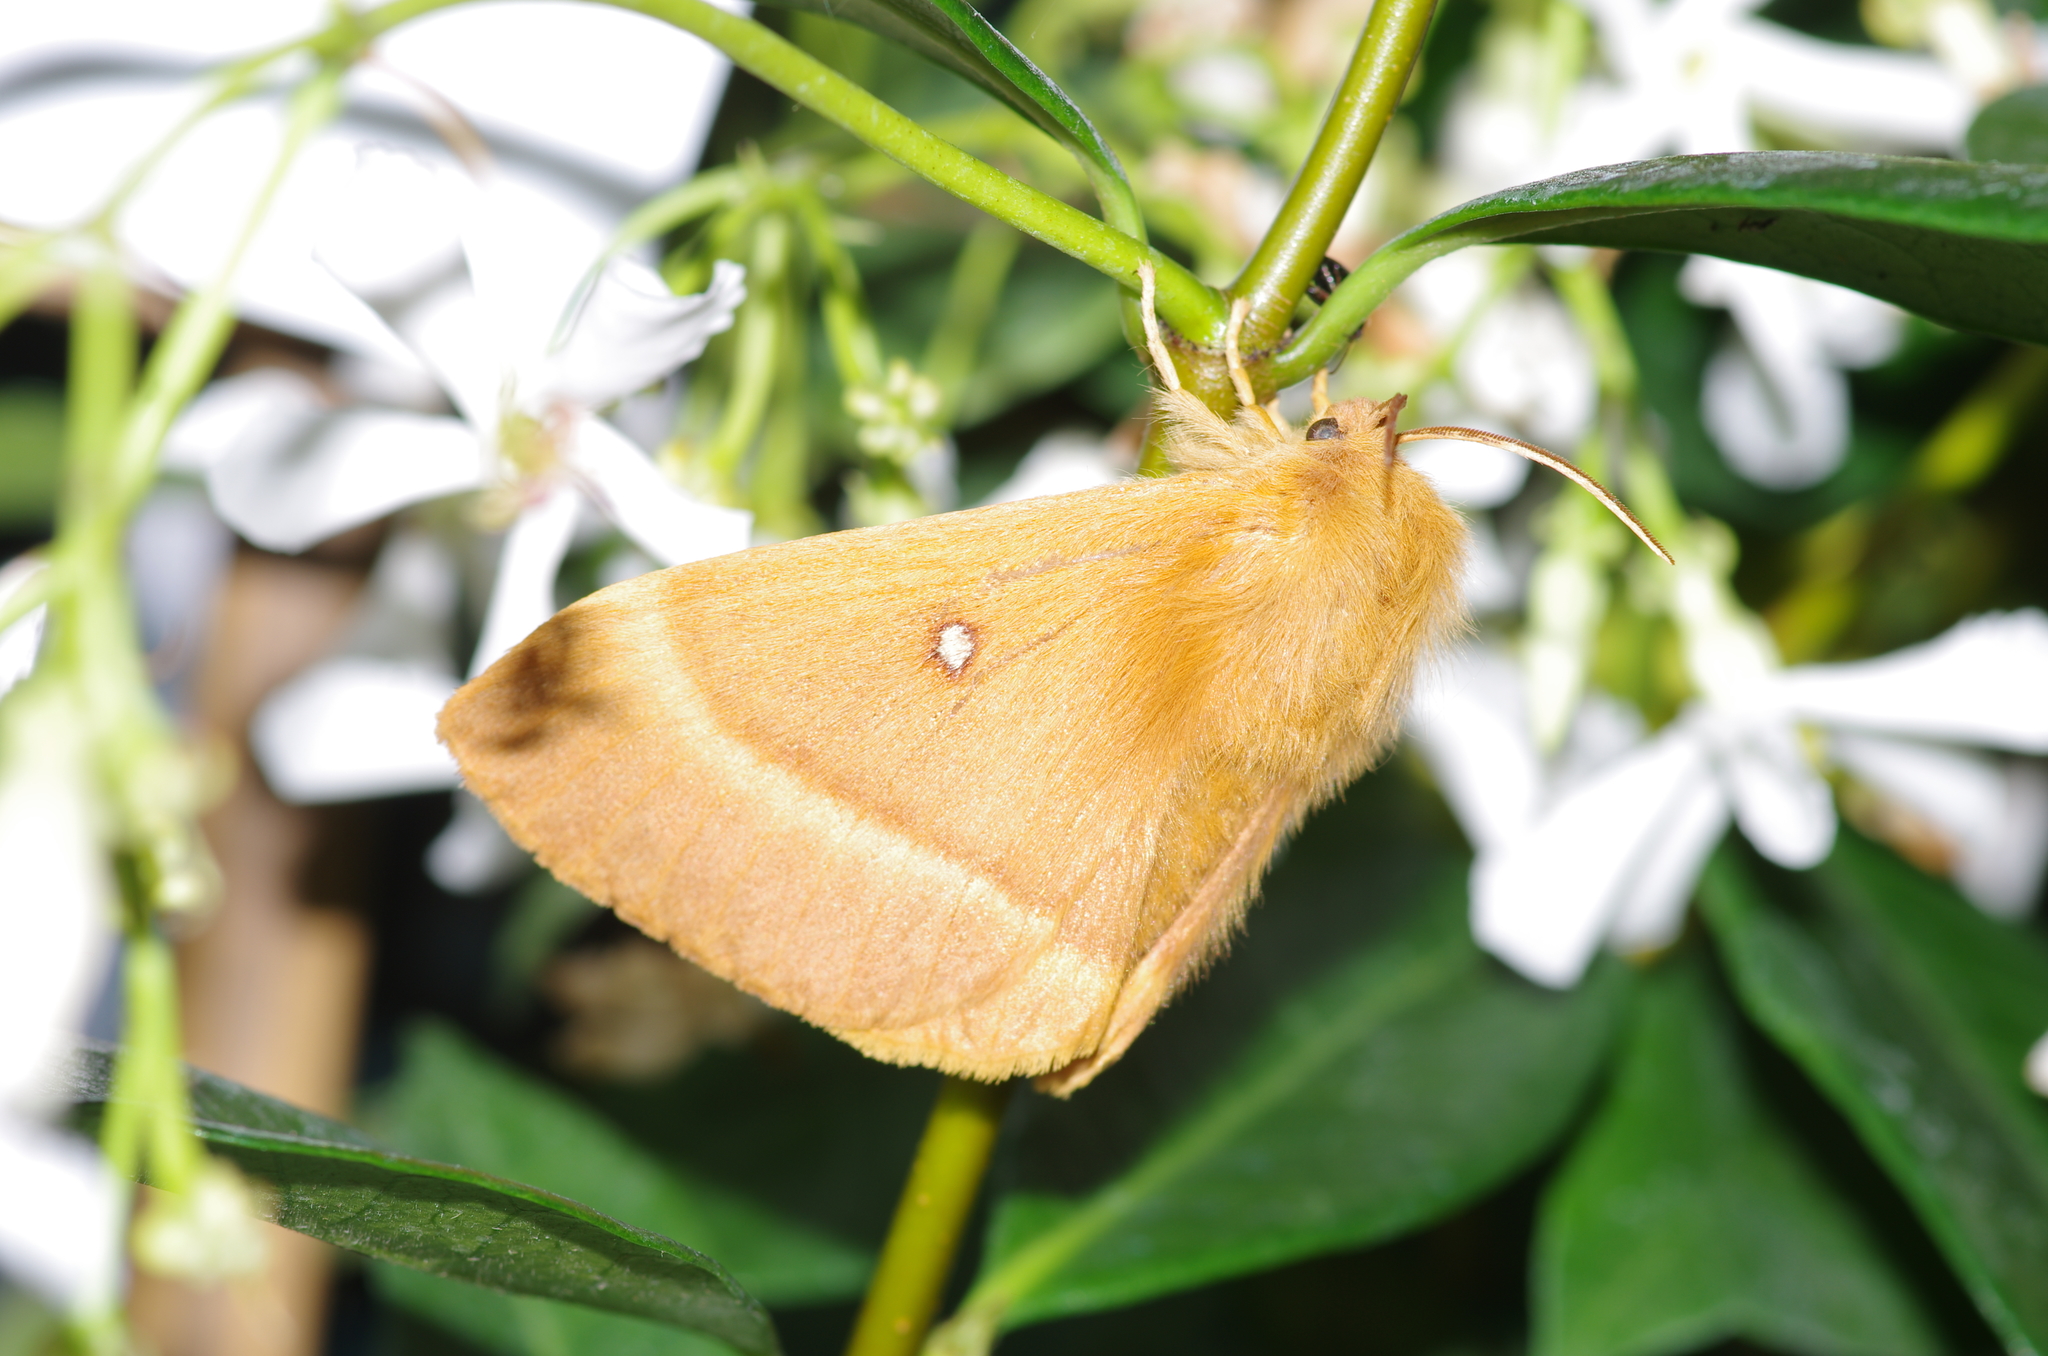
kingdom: Animalia
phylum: Arthropoda
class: Insecta
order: Lepidoptera
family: Lasiocampidae
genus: Lasiocampa
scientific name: Lasiocampa quercus
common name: Oak eggar
